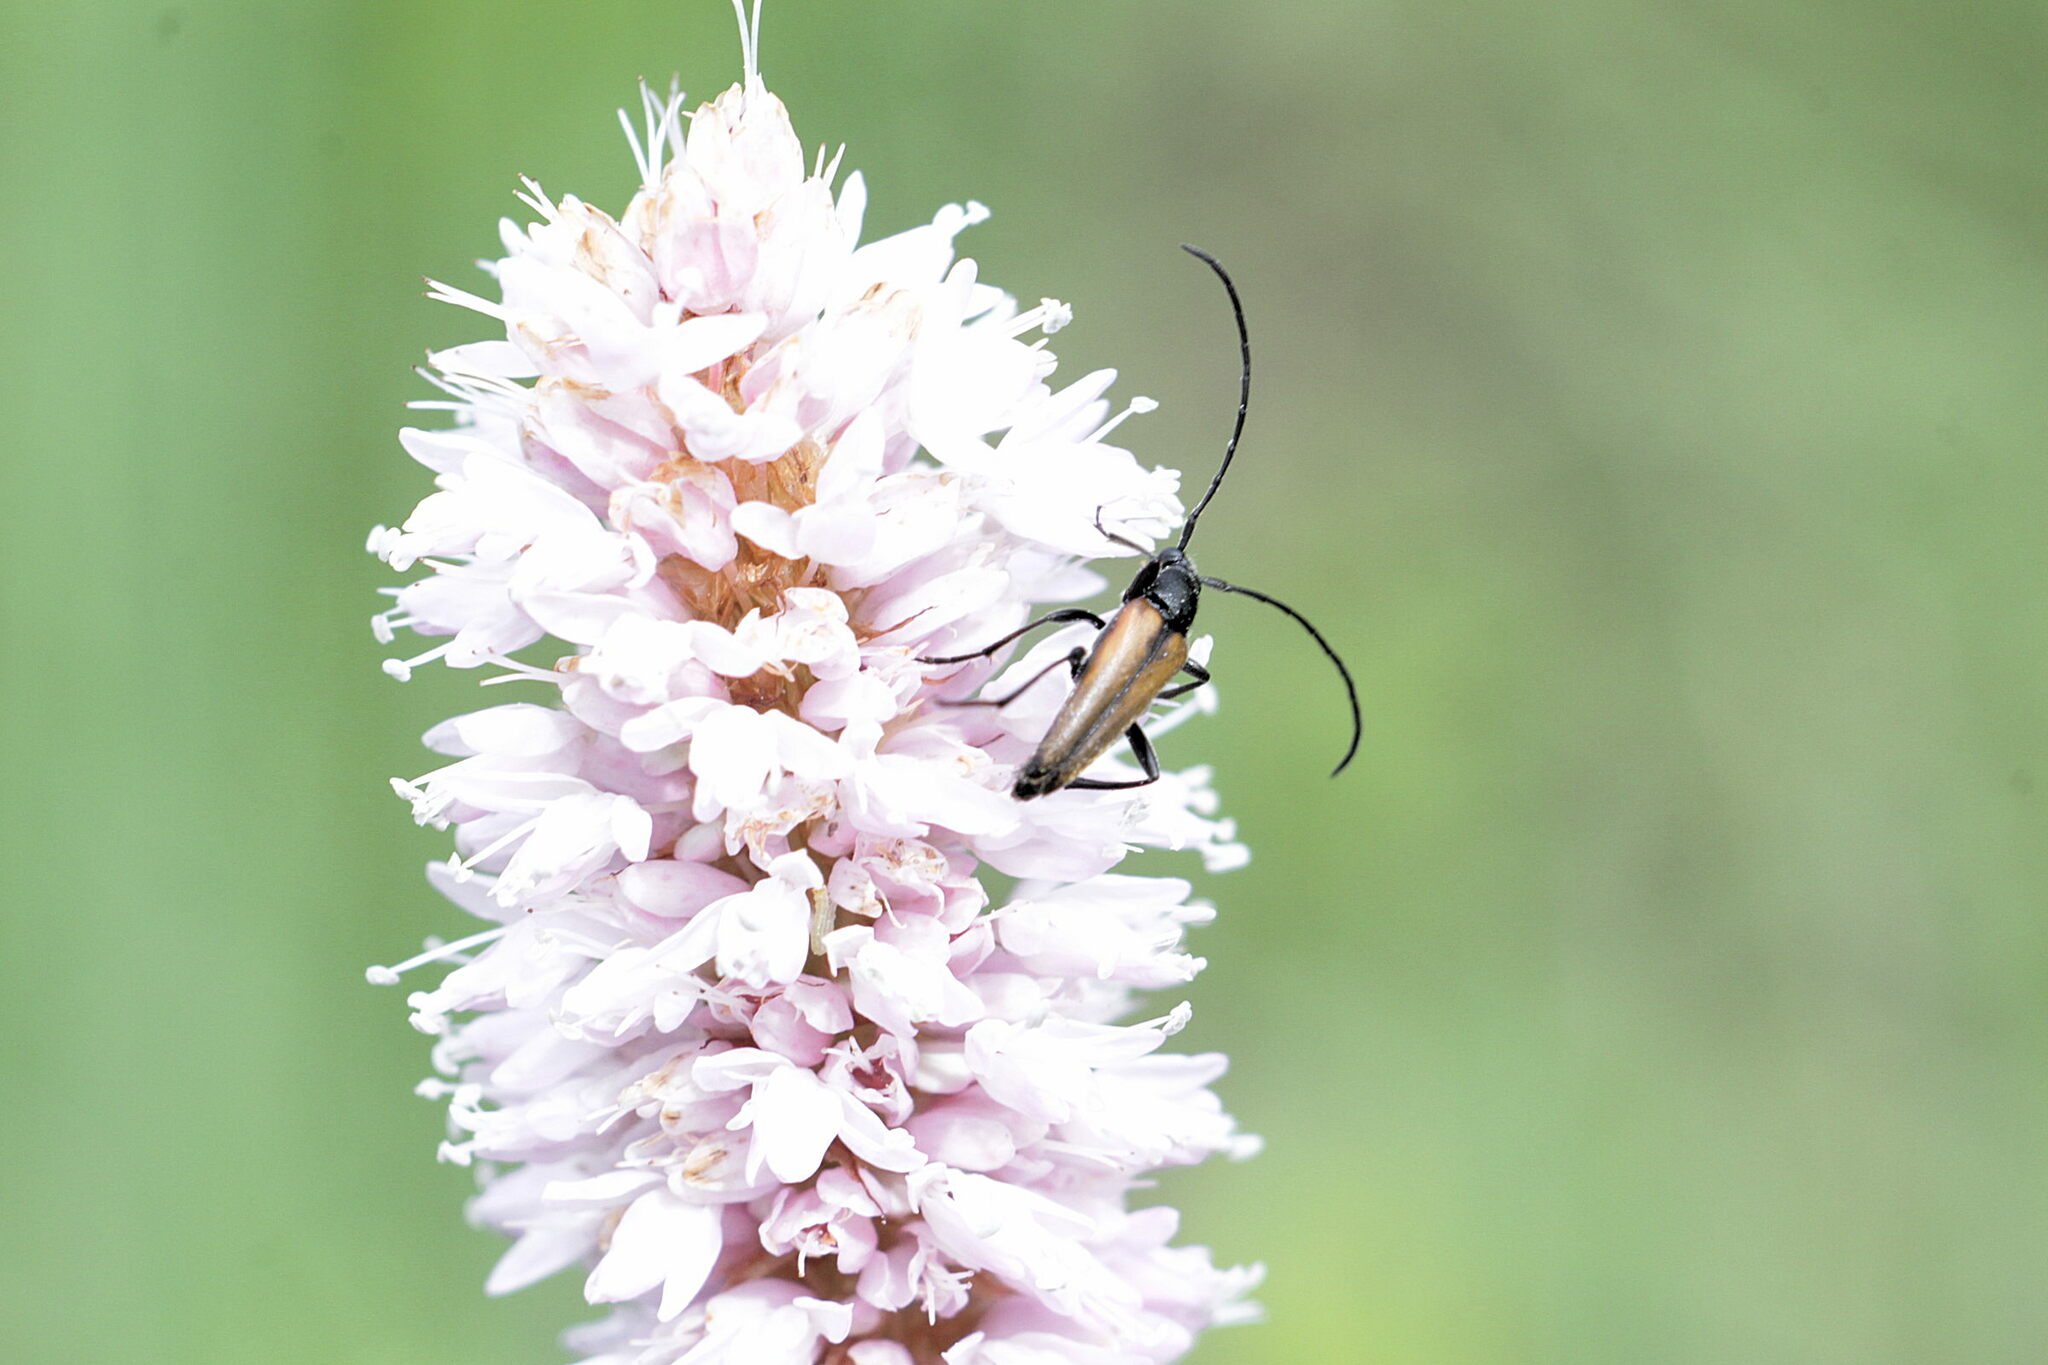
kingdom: Animalia
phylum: Arthropoda
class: Insecta
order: Coleoptera
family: Cerambycidae
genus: Stenurella
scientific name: Stenurella melanura
